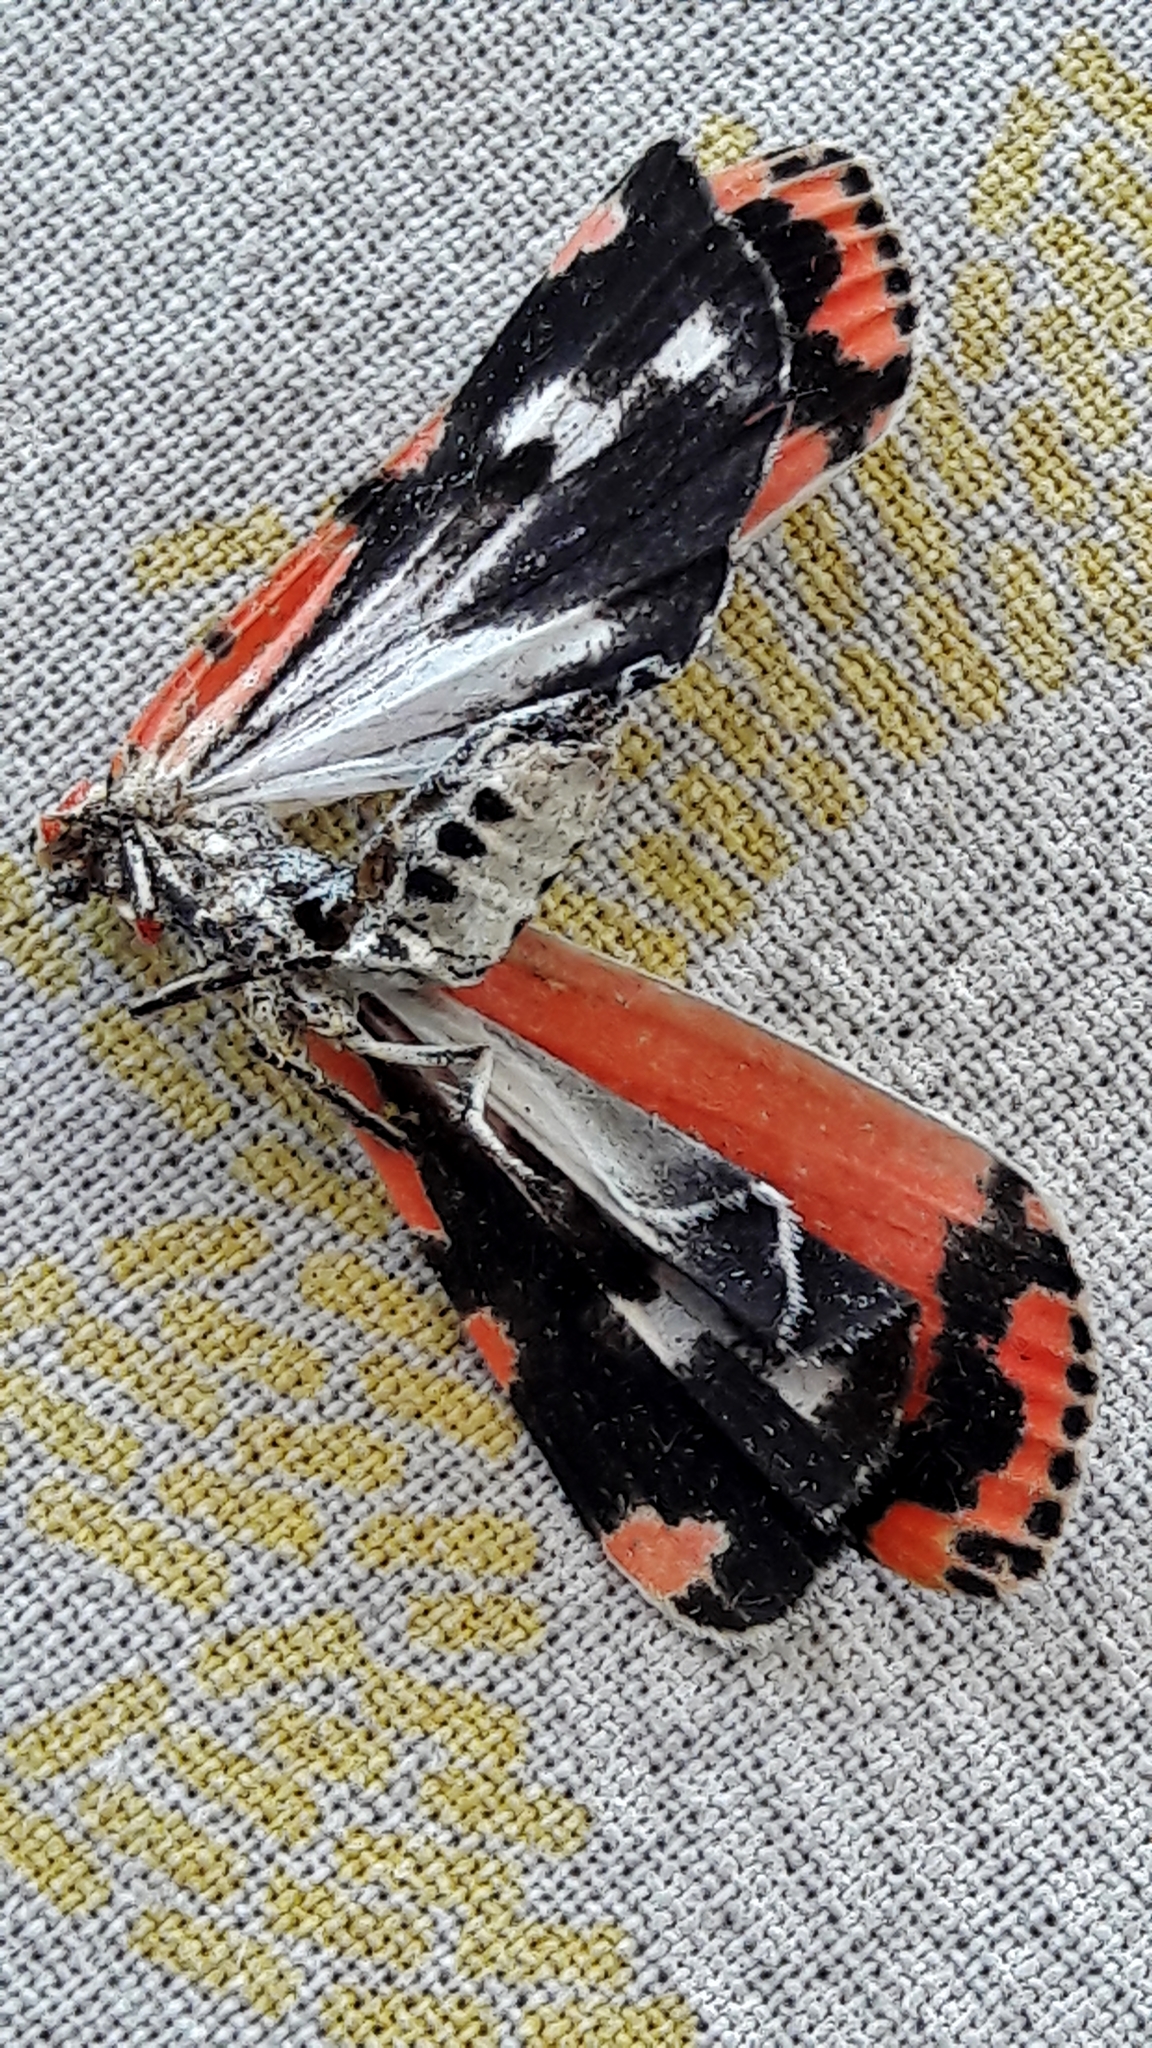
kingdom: Animalia
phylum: Arthropoda
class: Insecta
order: Lepidoptera
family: Erebidae
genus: Utetheisa
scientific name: Utetheisa ornatrix
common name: Beautiful utetheisa
